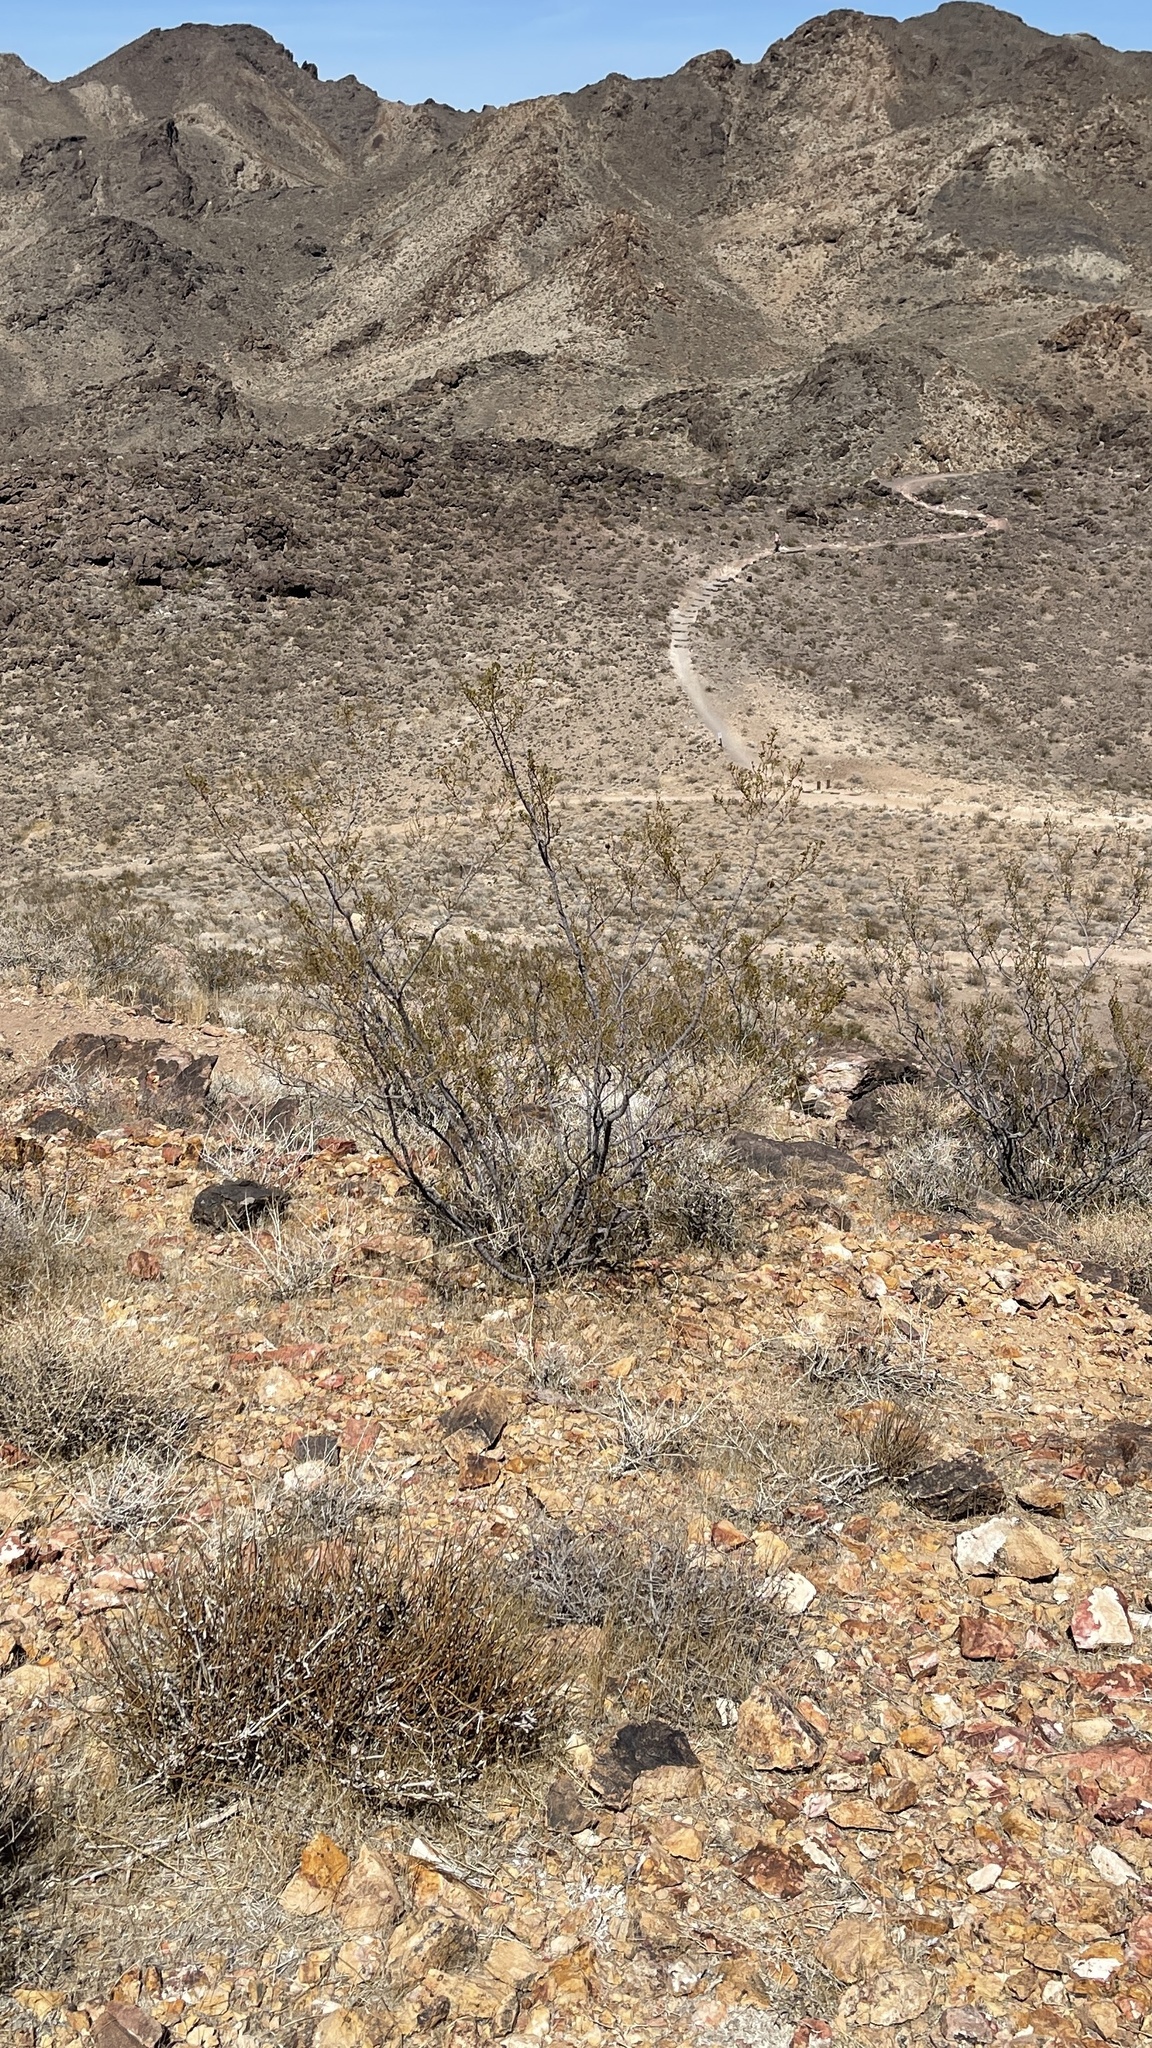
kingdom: Plantae
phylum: Tracheophyta
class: Magnoliopsida
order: Zygophyllales
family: Zygophyllaceae
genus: Larrea
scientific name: Larrea tridentata
